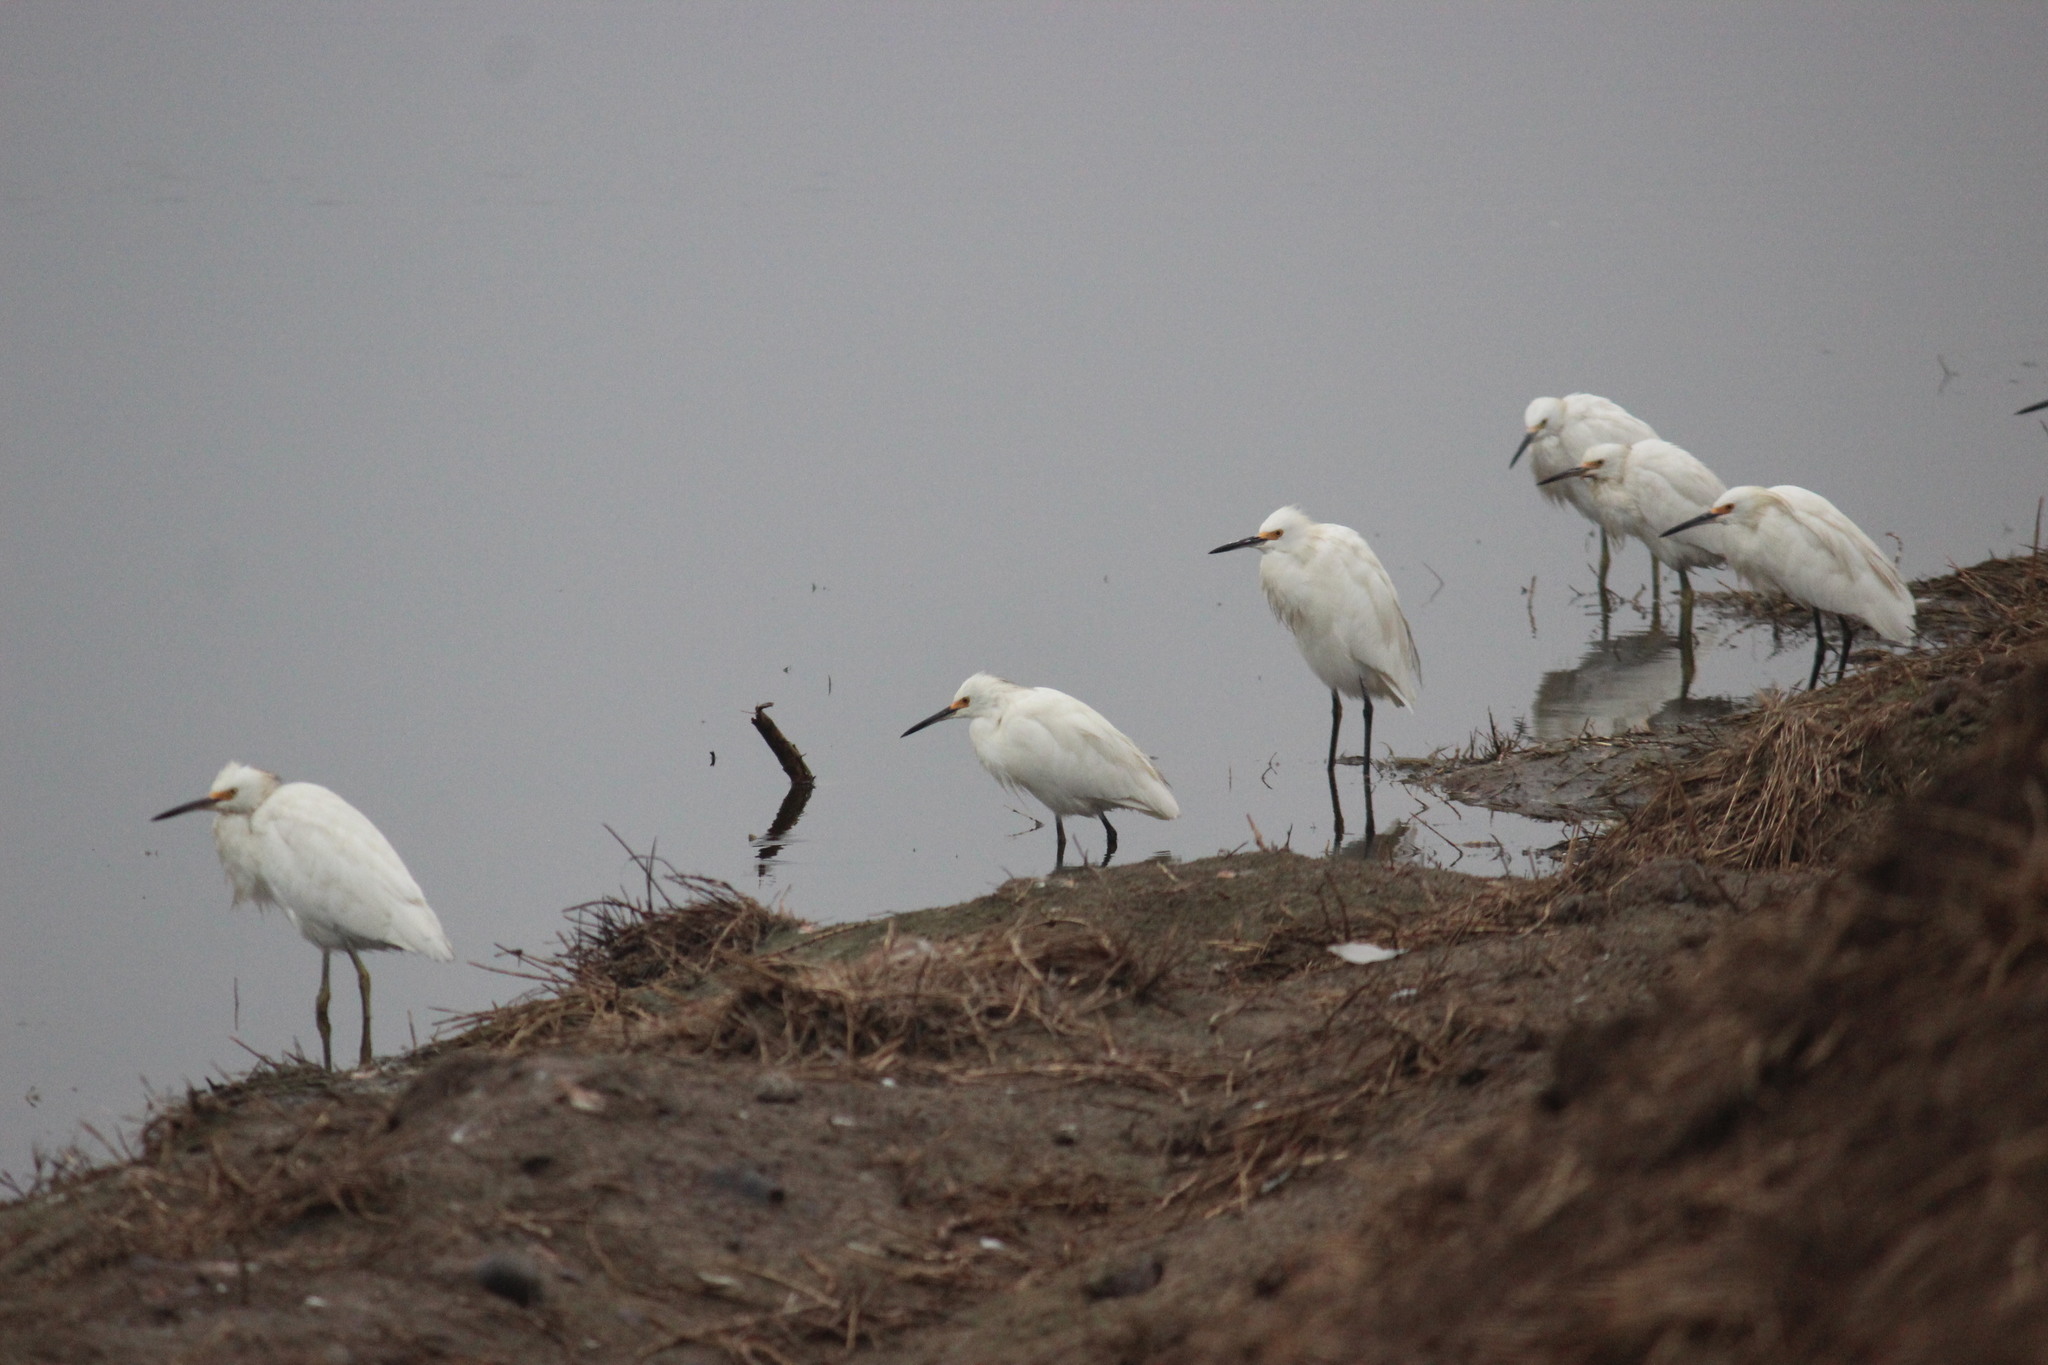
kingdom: Animalia
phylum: Chordata
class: Aves
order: Pelecaniformes
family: Ardeidae
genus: Egretta
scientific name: Egretta thula
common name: Snowy egret
